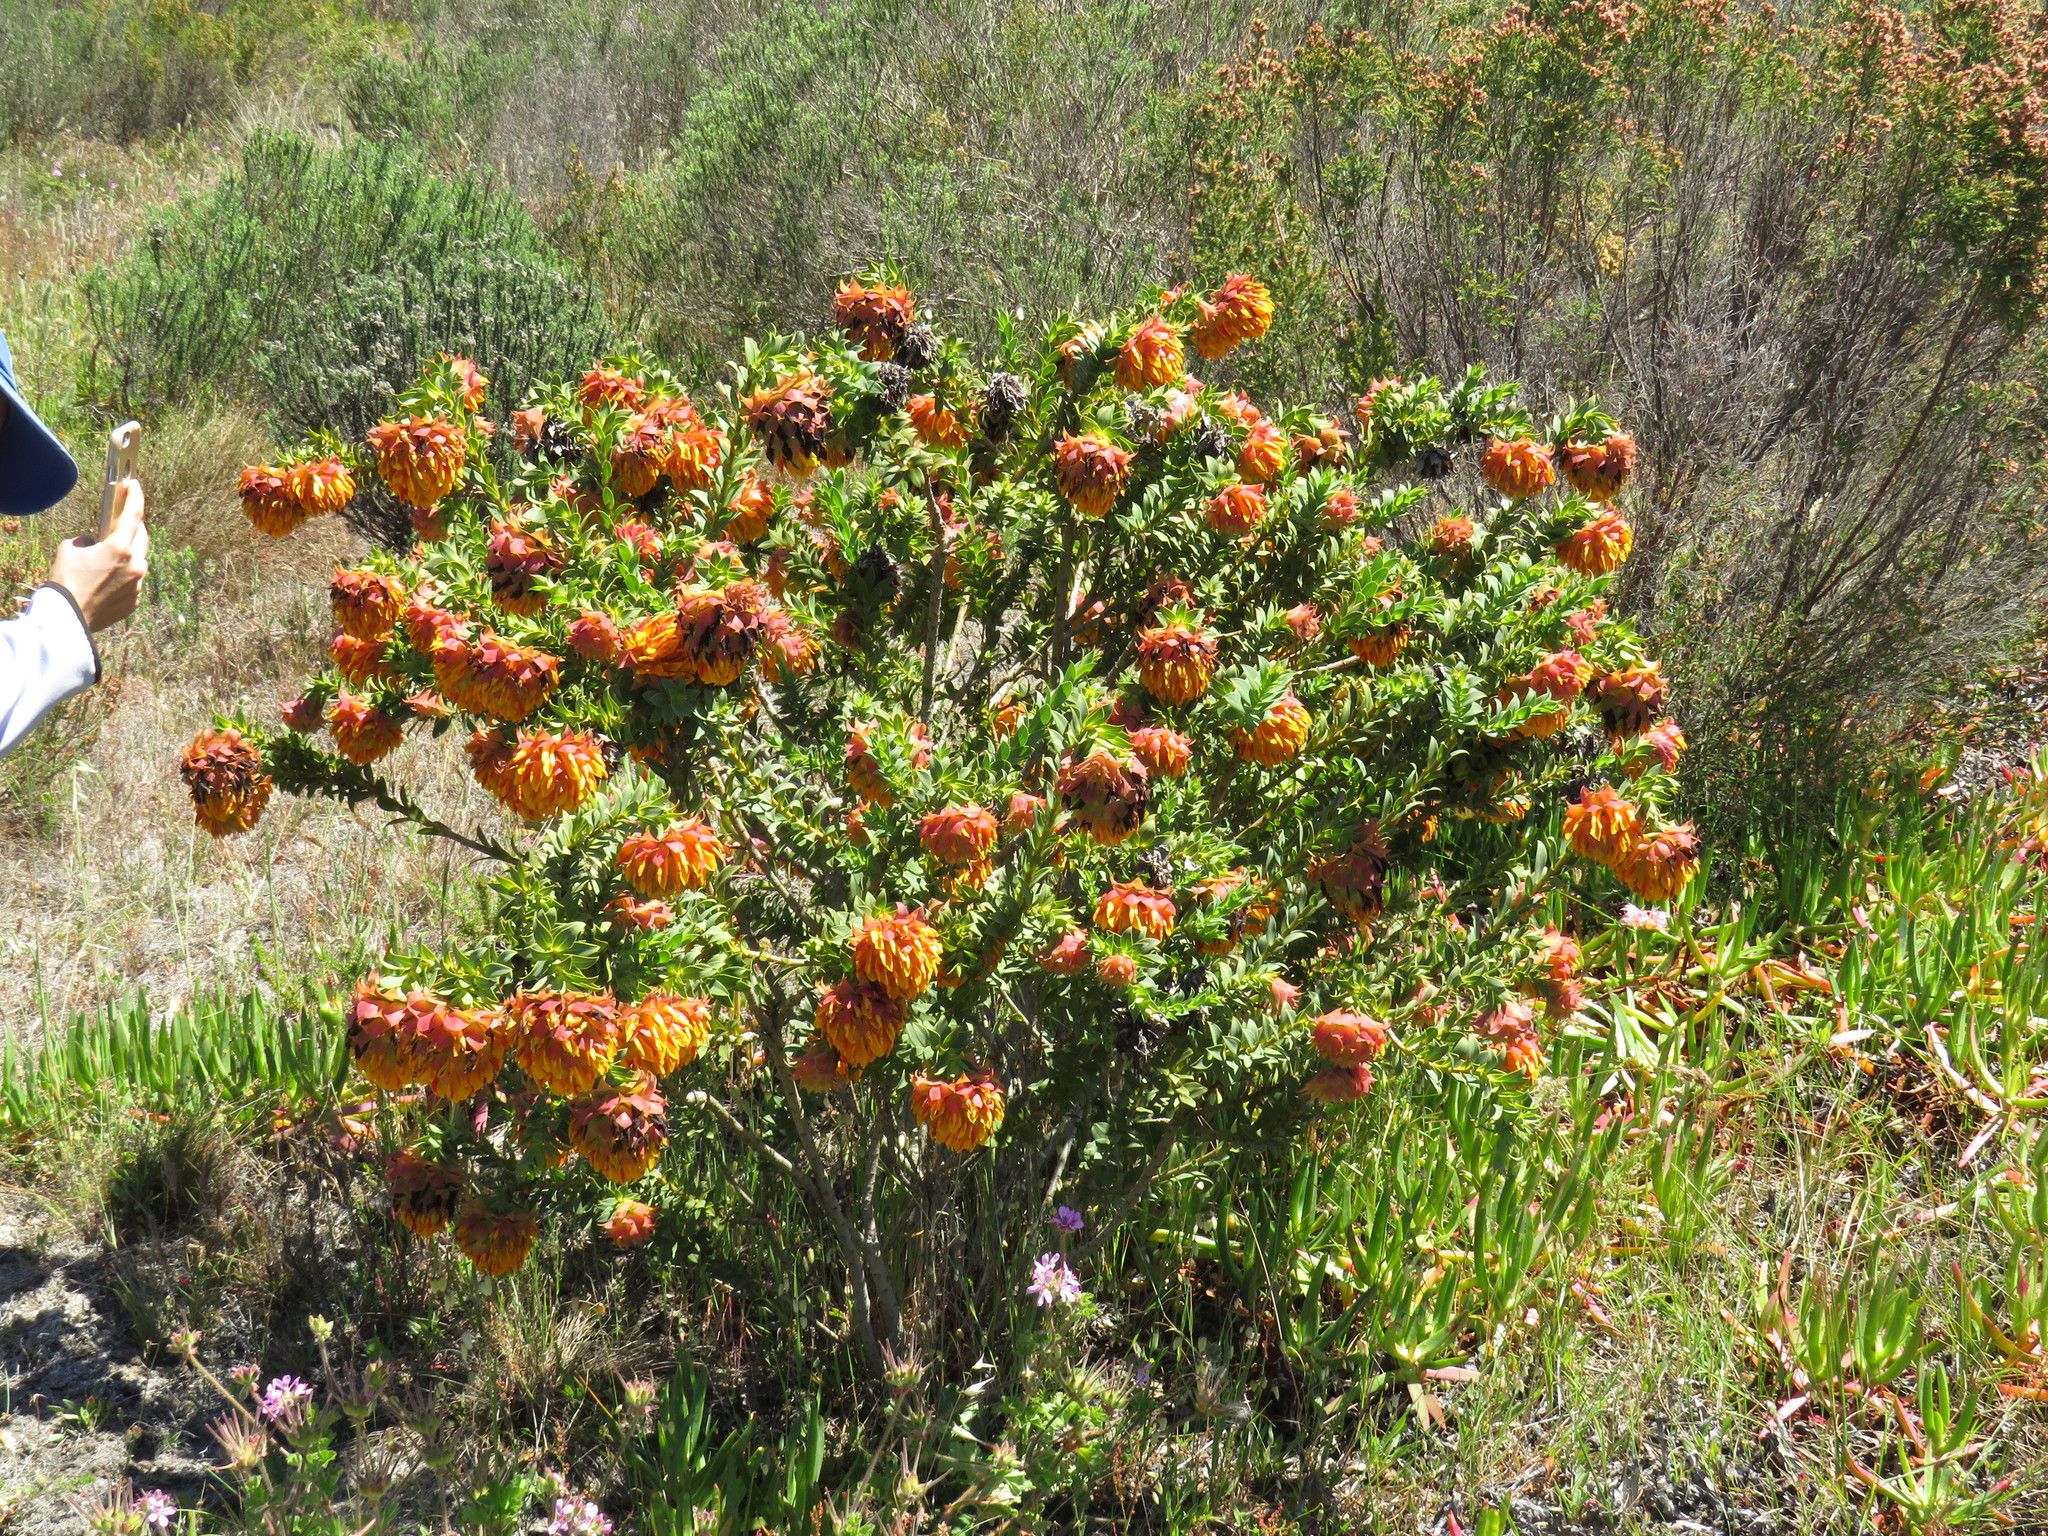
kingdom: Plantae
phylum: Tracheophyta
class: Magnoliopsida
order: Fabales
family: Fabaceae
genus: Liparia
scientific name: Liparia splendens
